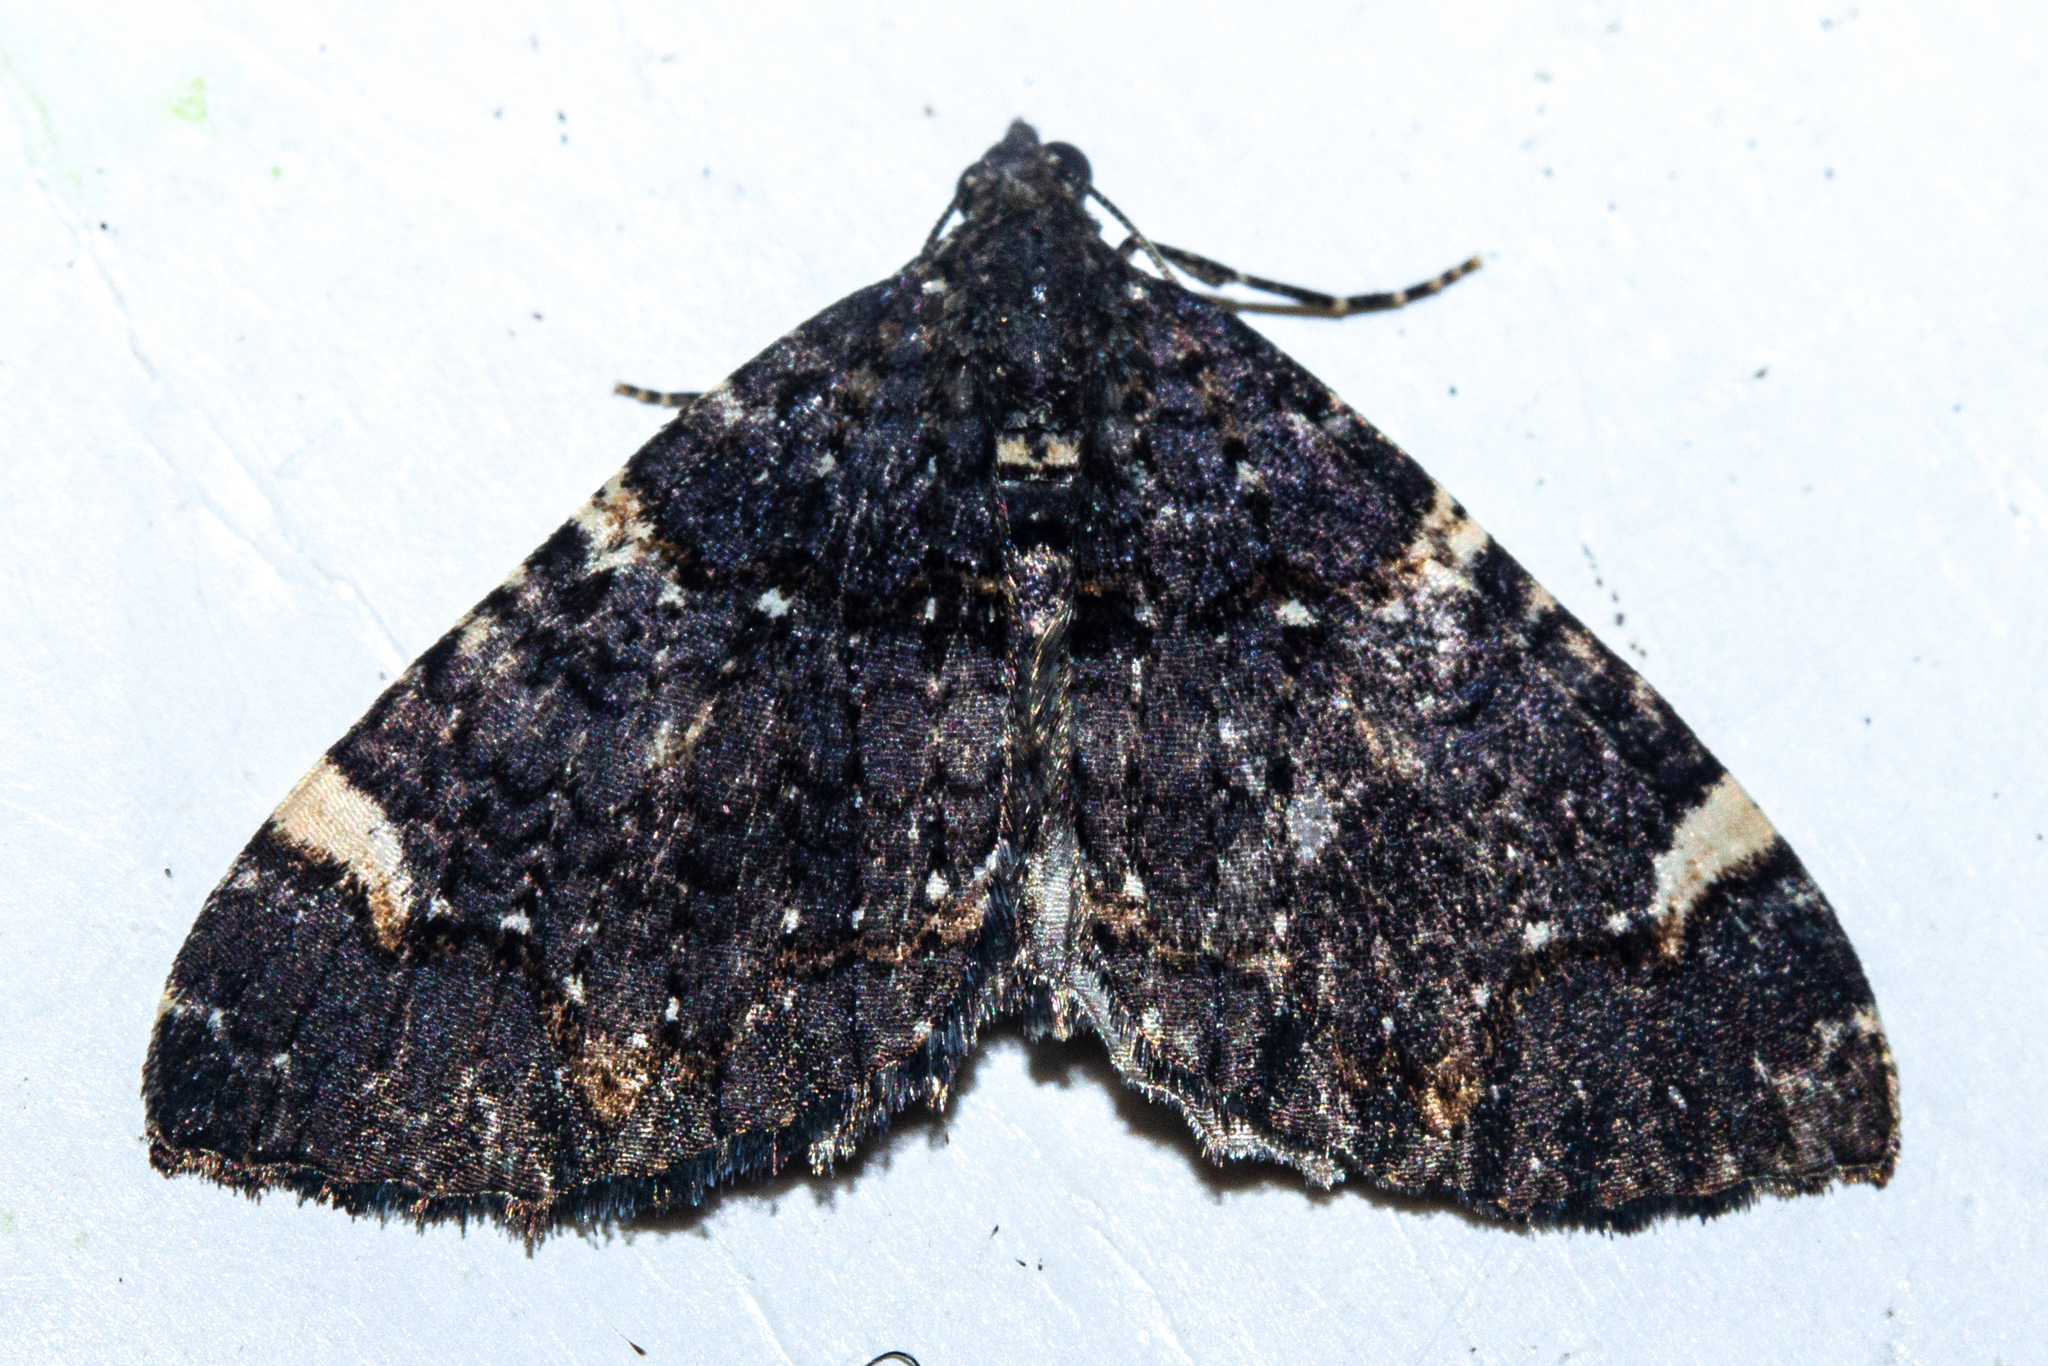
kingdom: Animalia
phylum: Arthropoda
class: Insecta
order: Lepidoptera
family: Geometridae
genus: Hydriomena
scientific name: Hydriomena arida
